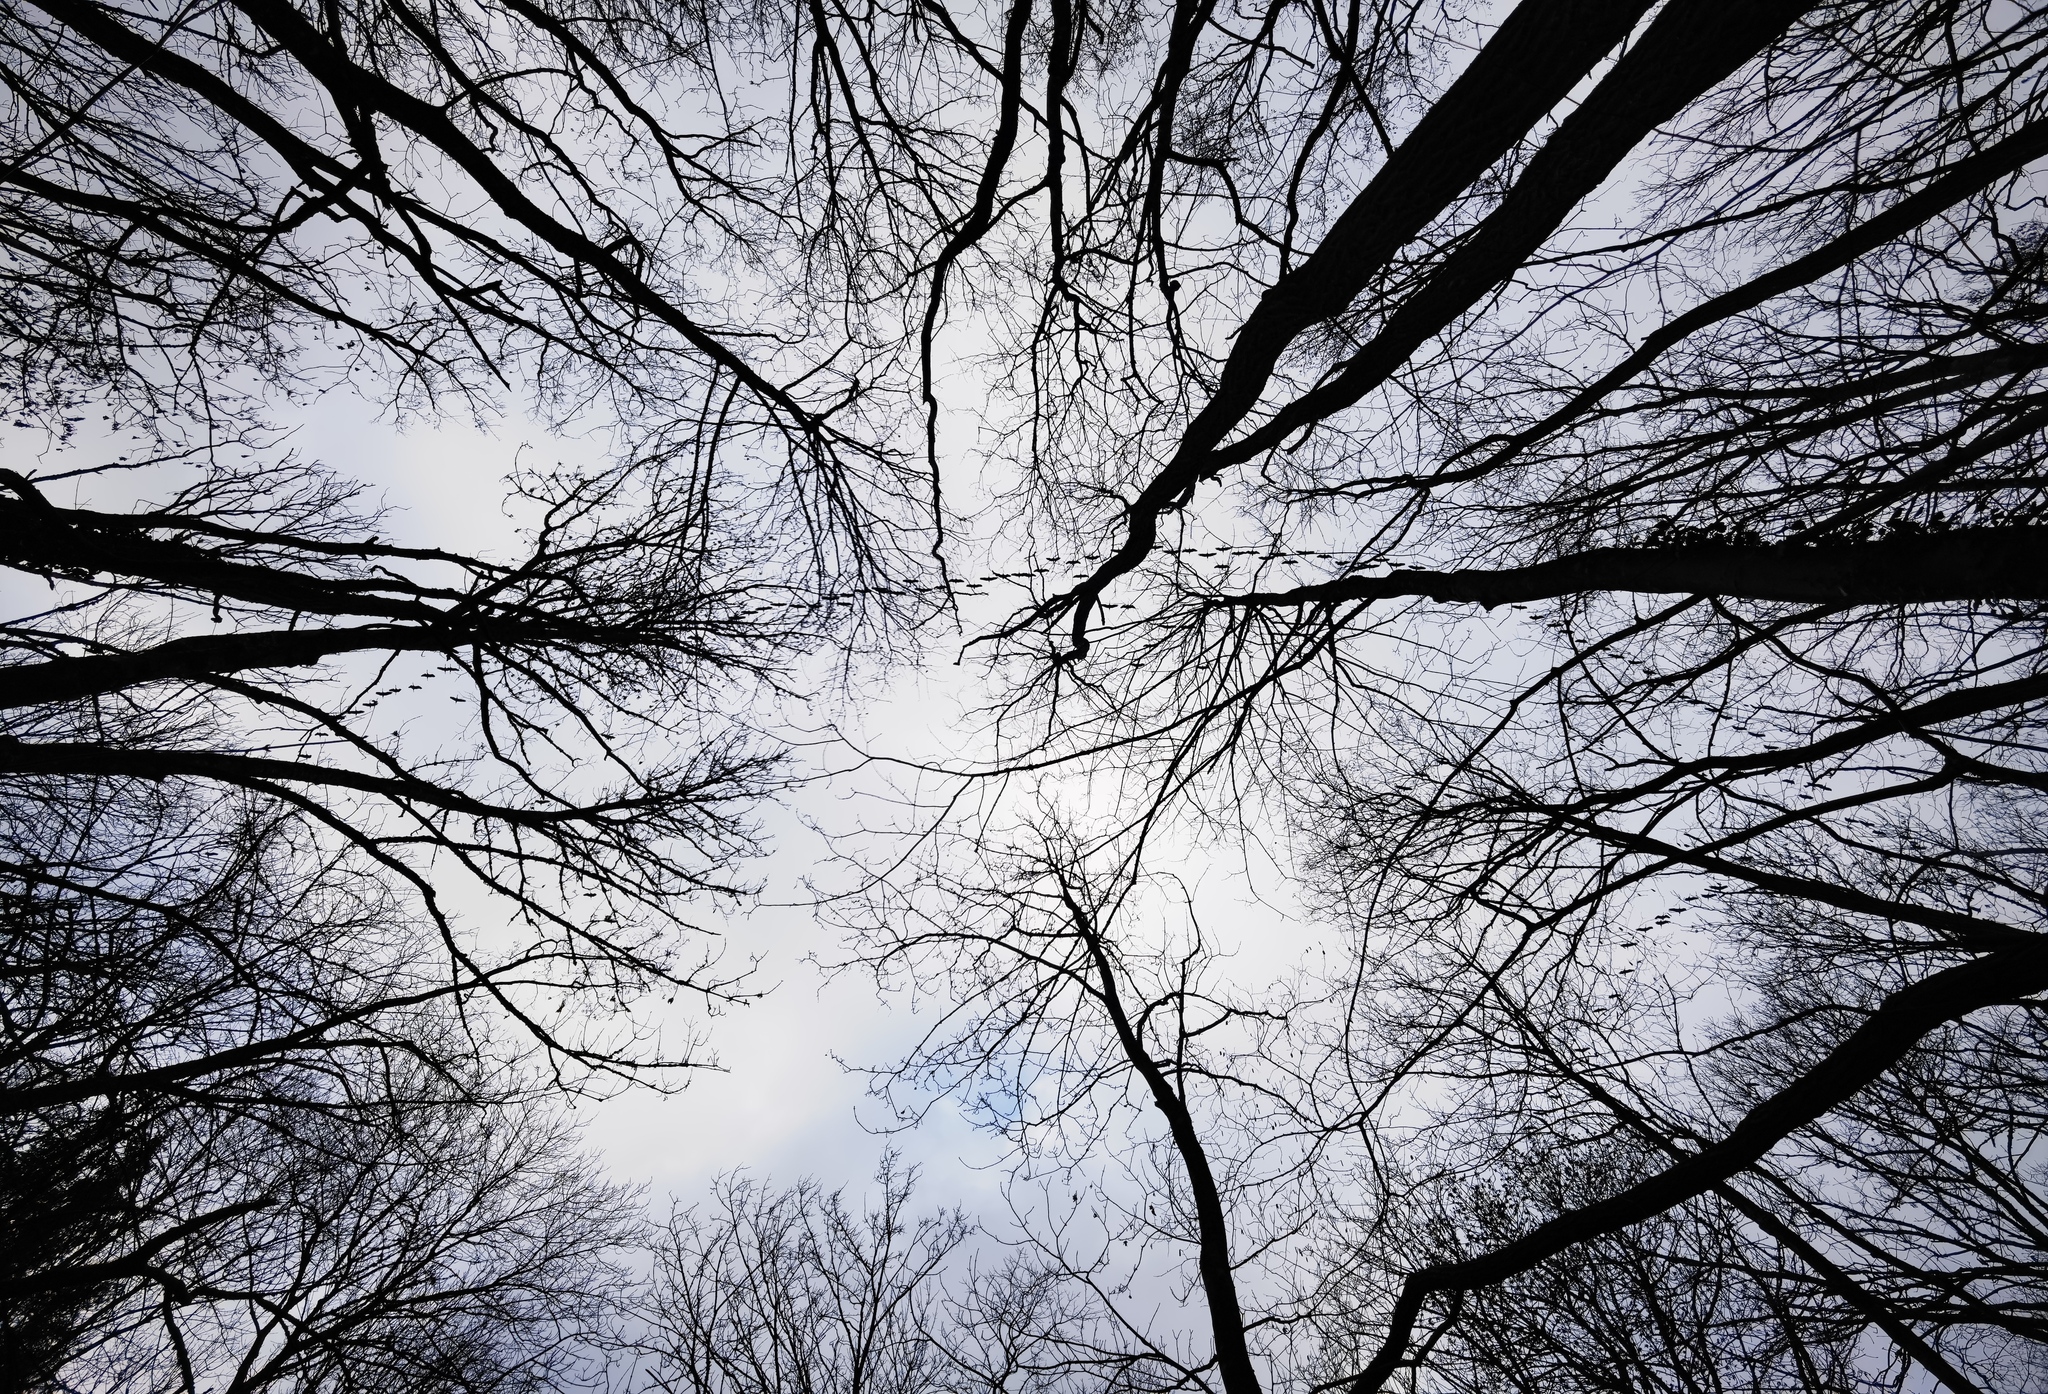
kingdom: Animalia
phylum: Chordata
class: Aves
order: Gruiformes
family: Gruidae
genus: Grus
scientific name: Grus grus
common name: Common crane
